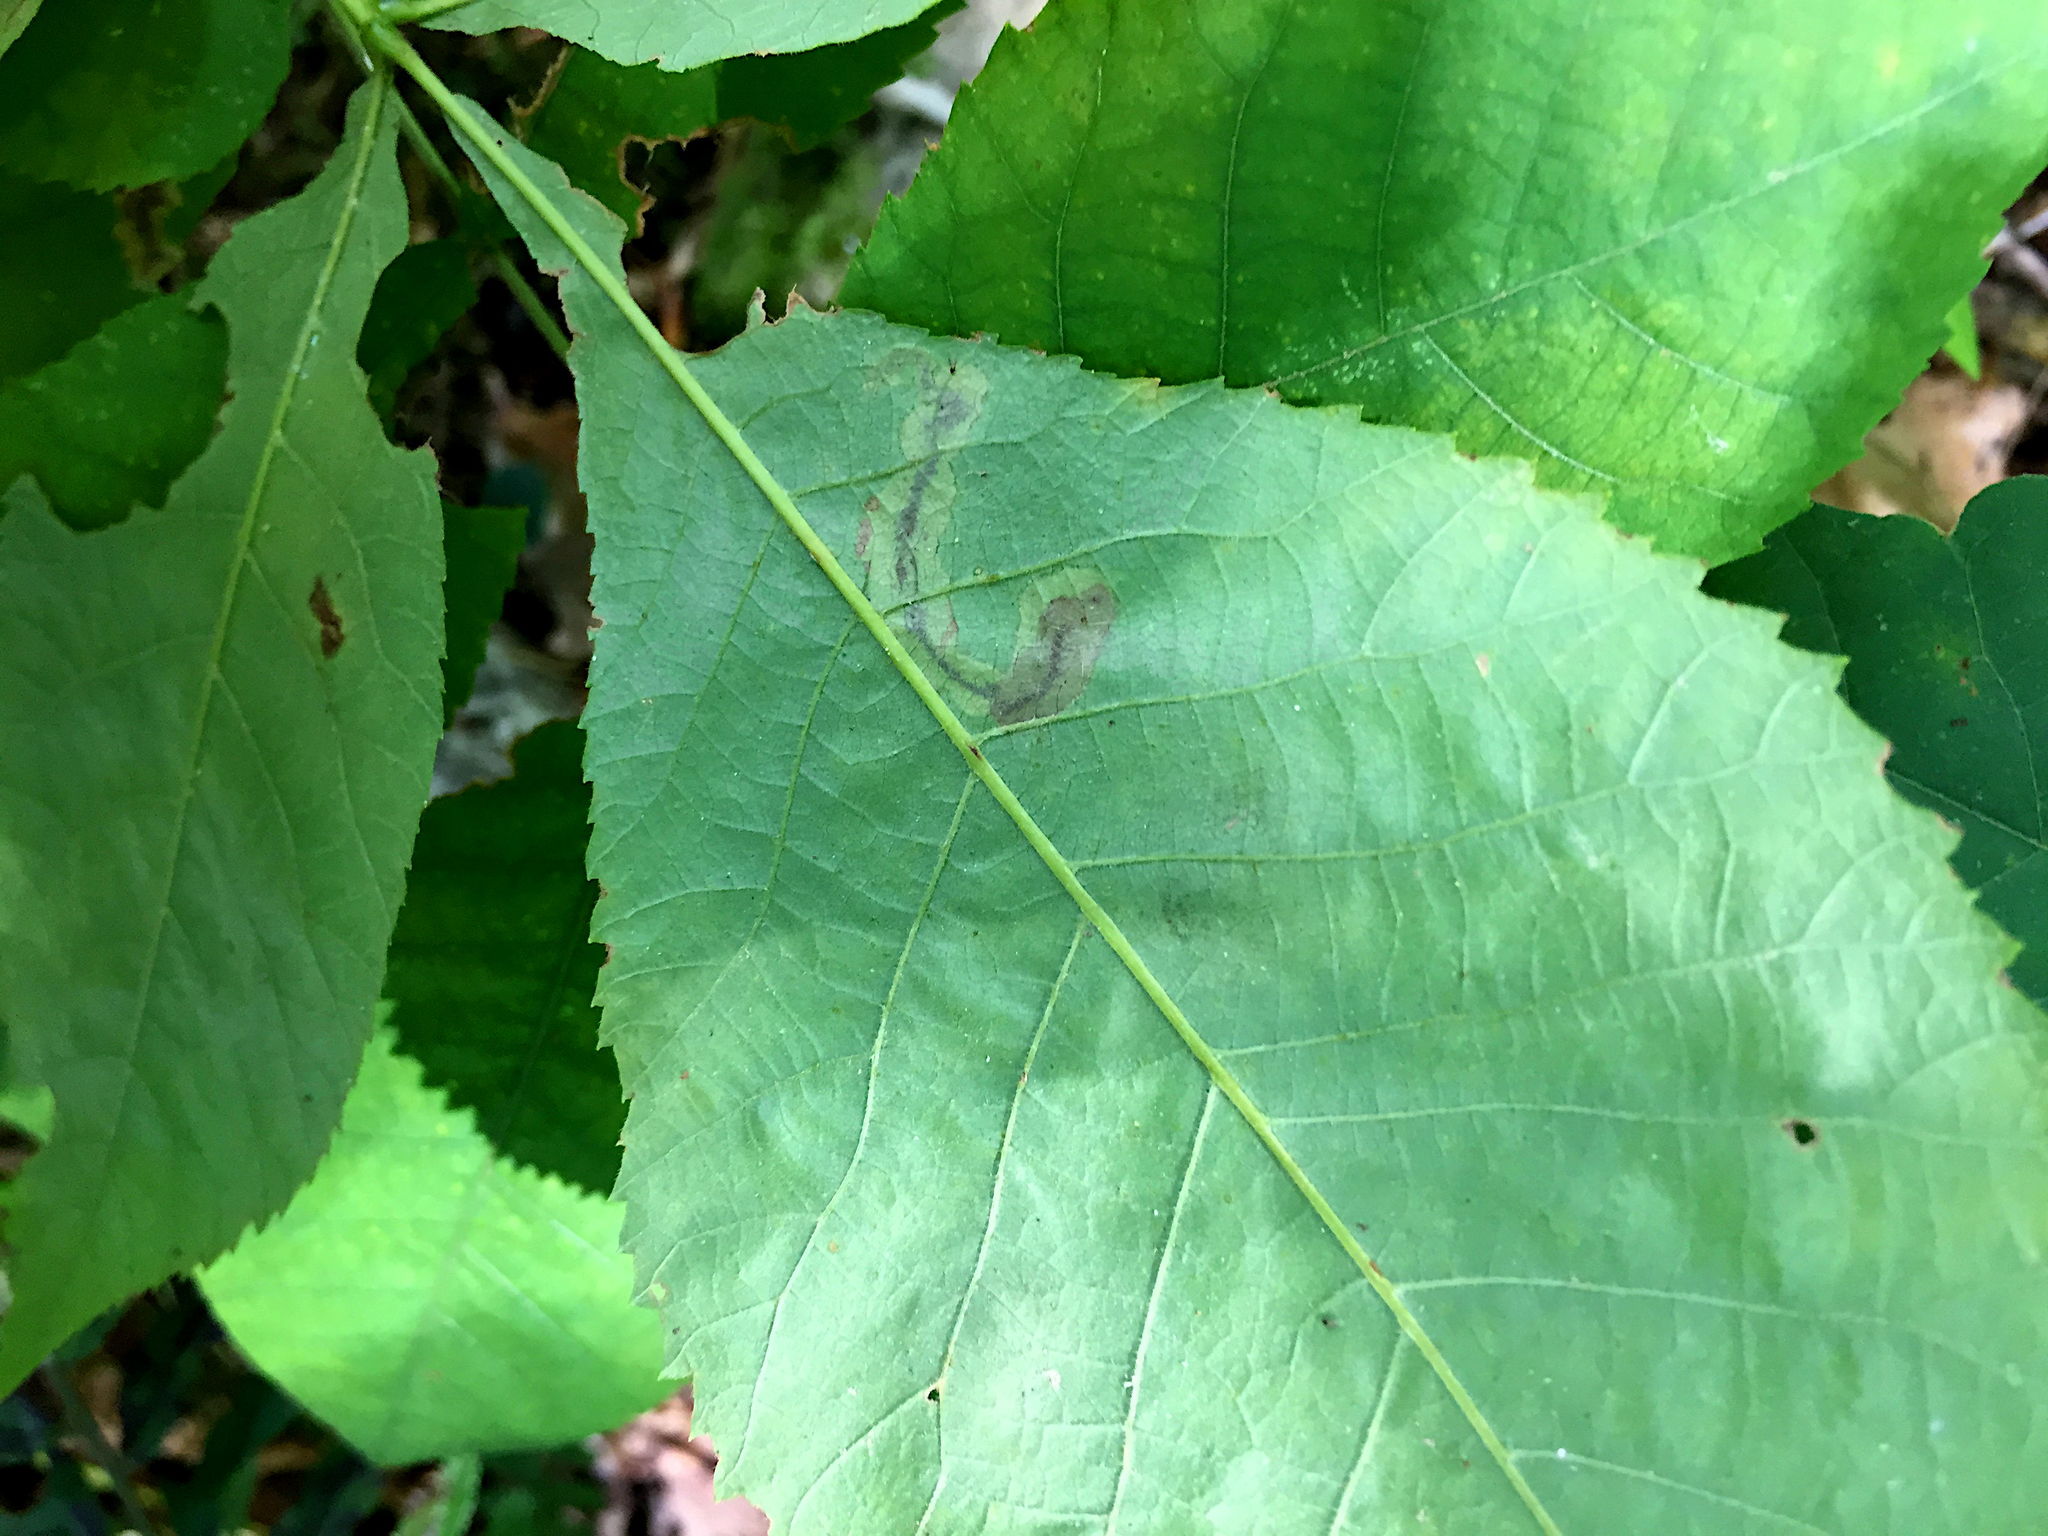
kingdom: Animalia
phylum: Arthropoda
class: Insecta
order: Lepidoptera
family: Gracillariidae
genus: Cameraria
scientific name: Cameraria caryaefoliella
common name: Pecan leafminer moth
